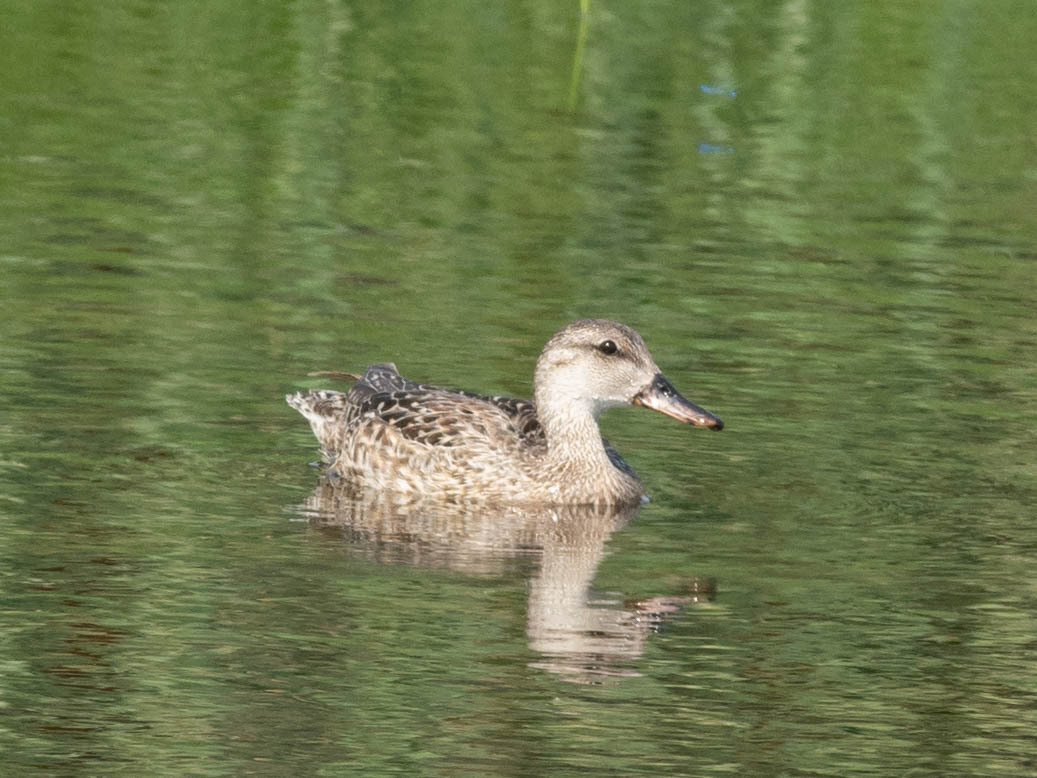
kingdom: Animalia
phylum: Chordata
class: Aves
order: Anseriformes
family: Anatidae
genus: Mareca
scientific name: Mareca strepera
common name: Gadwall
